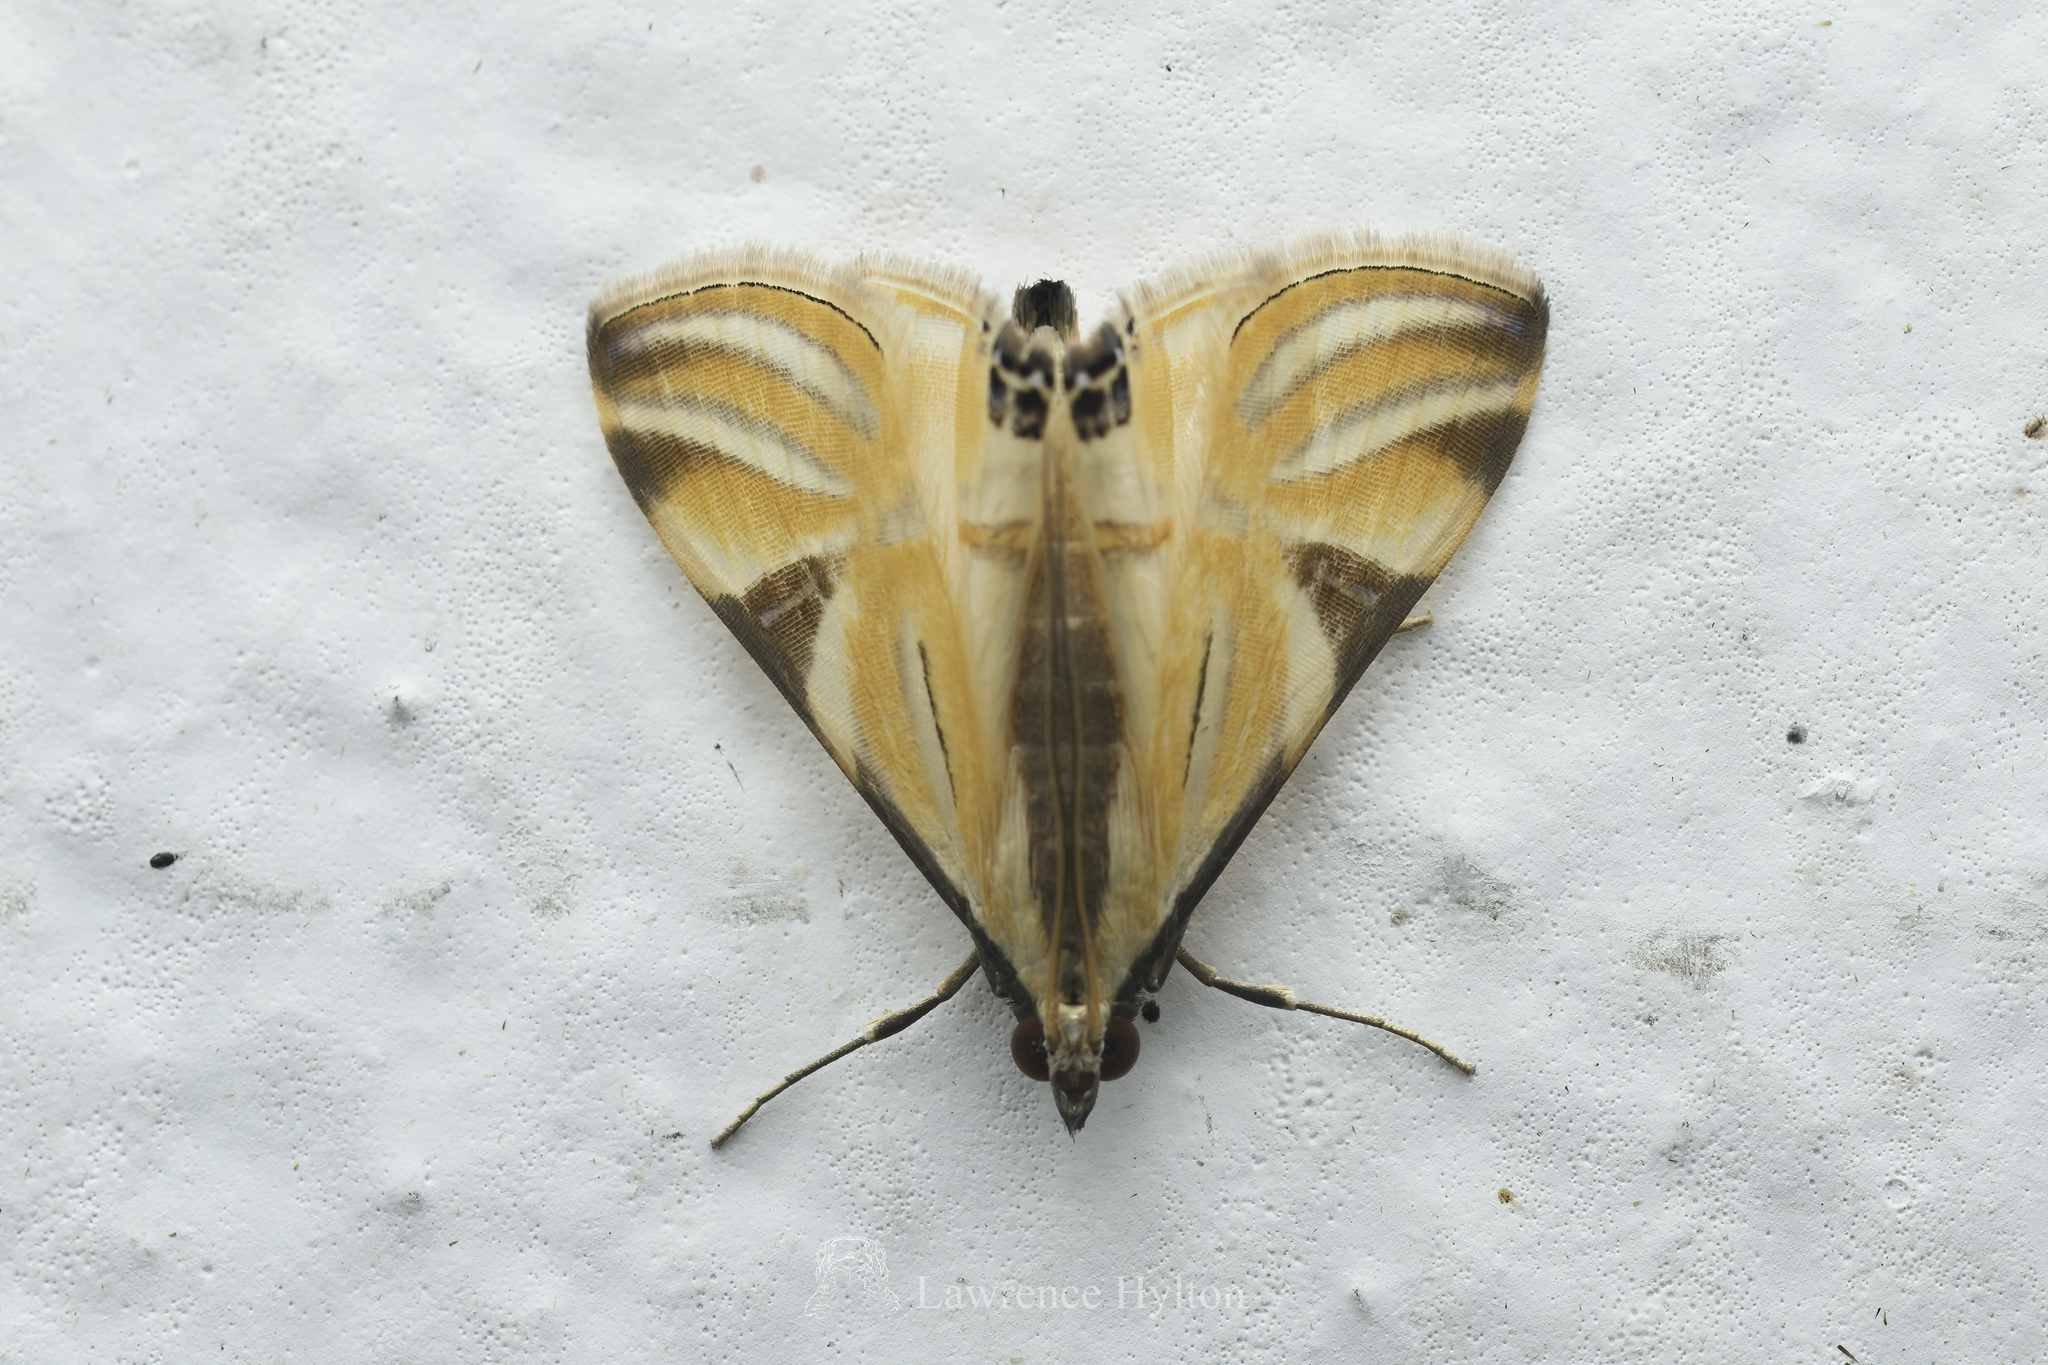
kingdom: Animalia
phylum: Arthropoda
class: Insecta
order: Lepidoptera
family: Crambidae
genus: Talanga
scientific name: Talanga sexpunctalis
